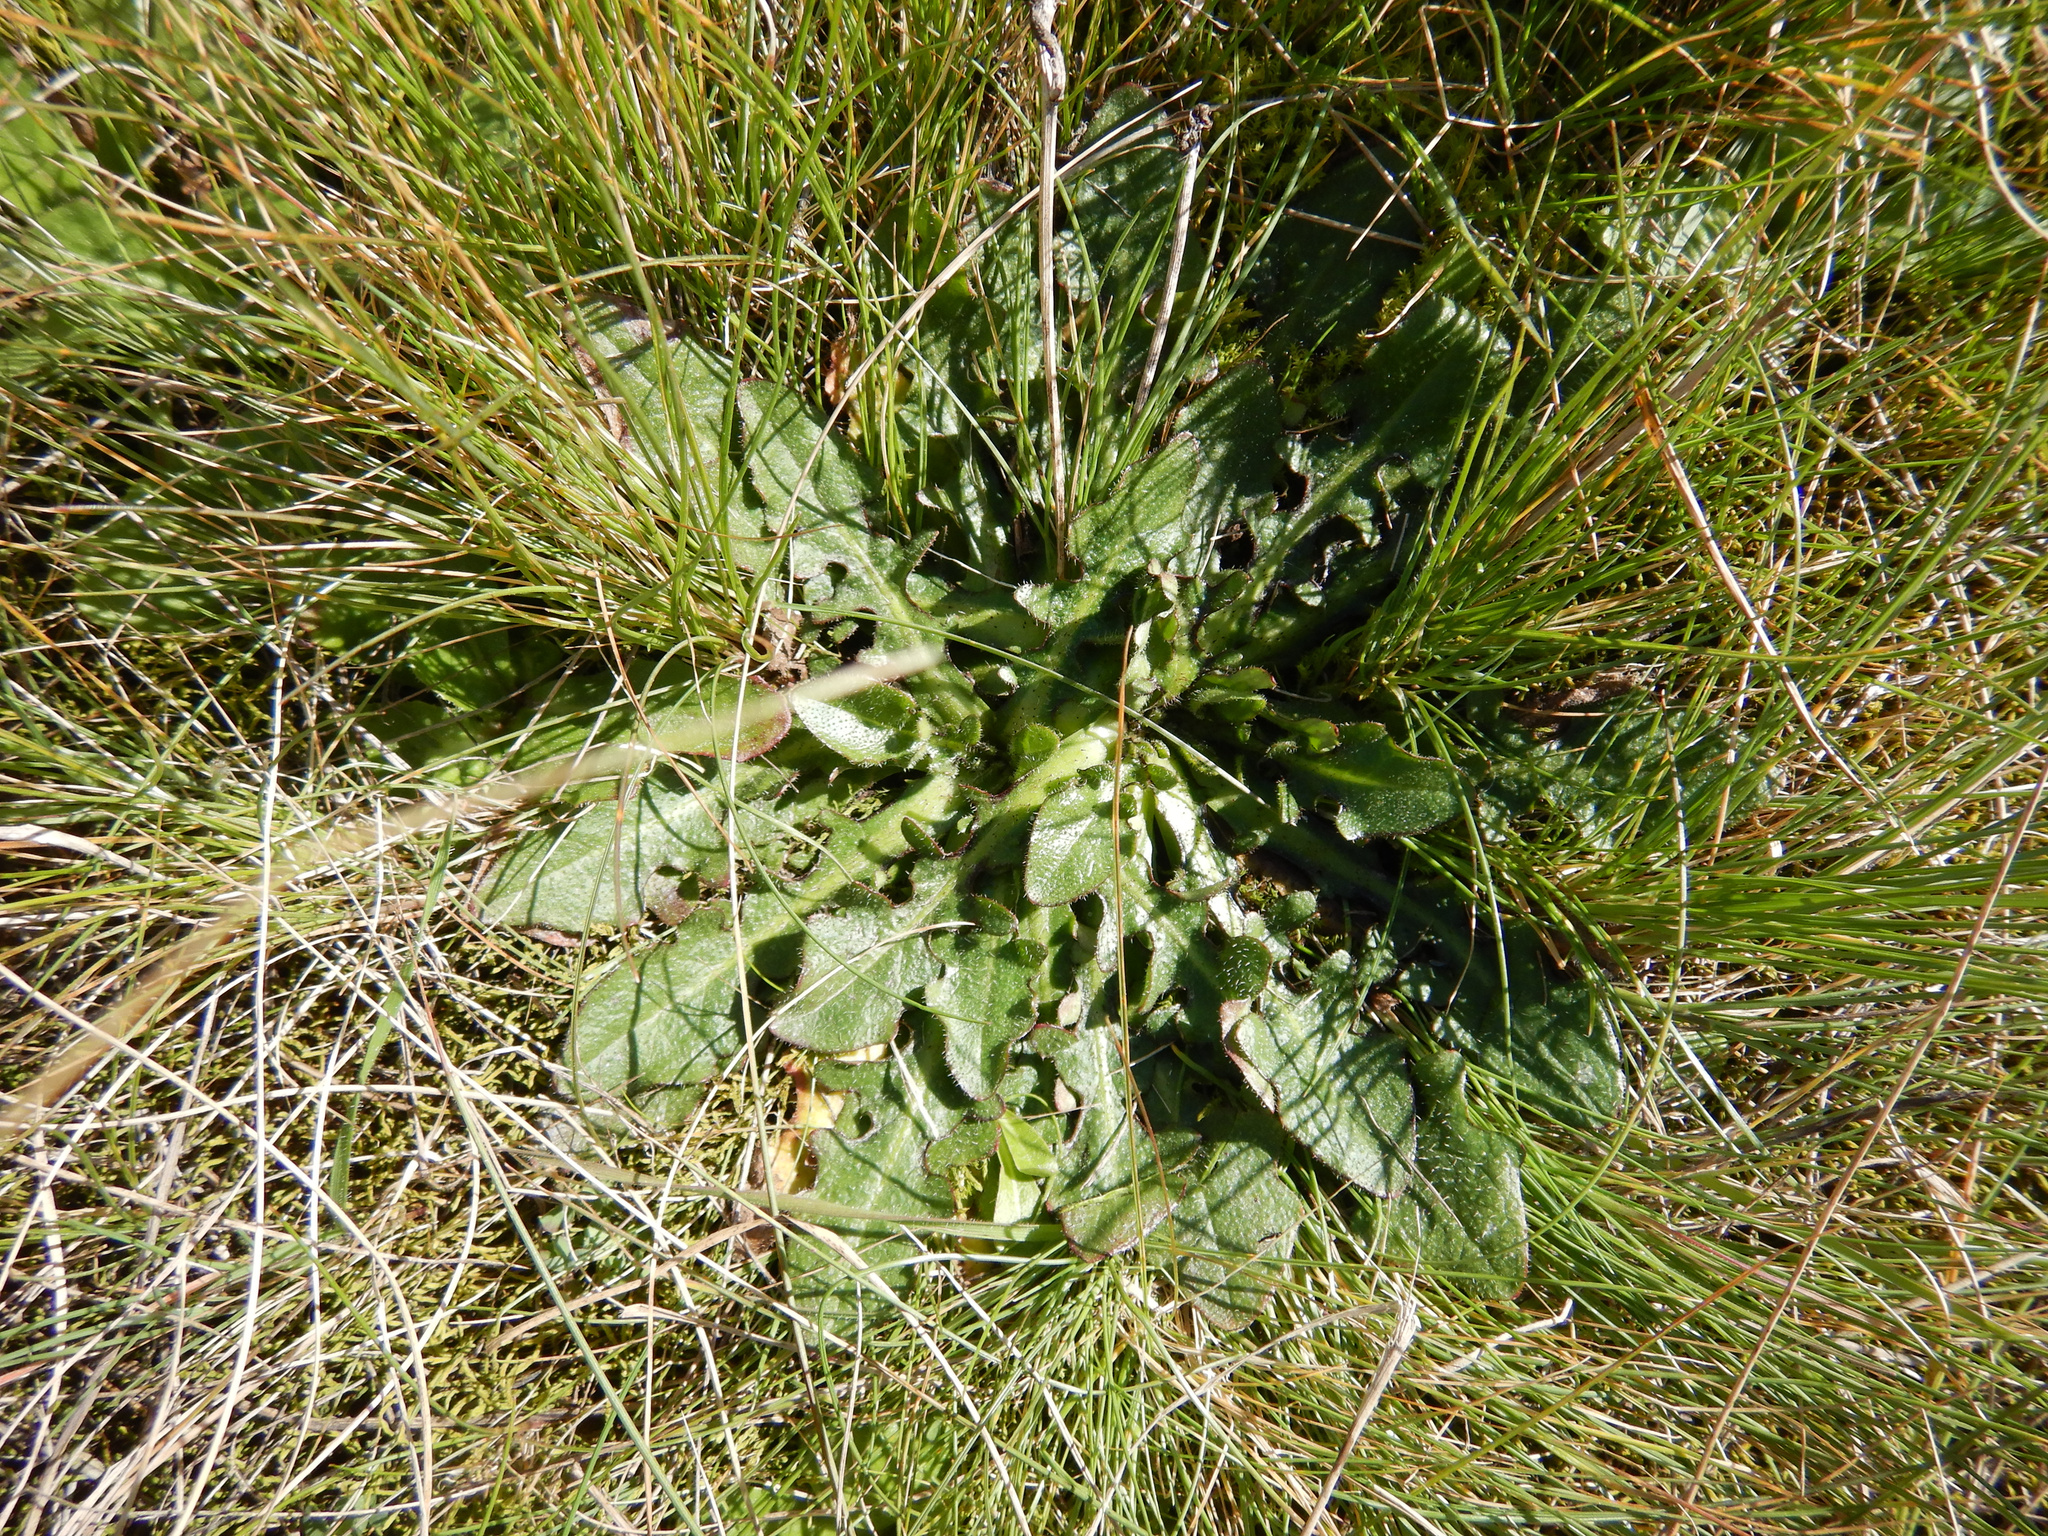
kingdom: Plantae
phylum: Tracheophyta
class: Magnoliopsida
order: Asterales
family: Asteraceae
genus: Hypochaeris
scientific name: Hypochaeris radicata
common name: Flatweed
